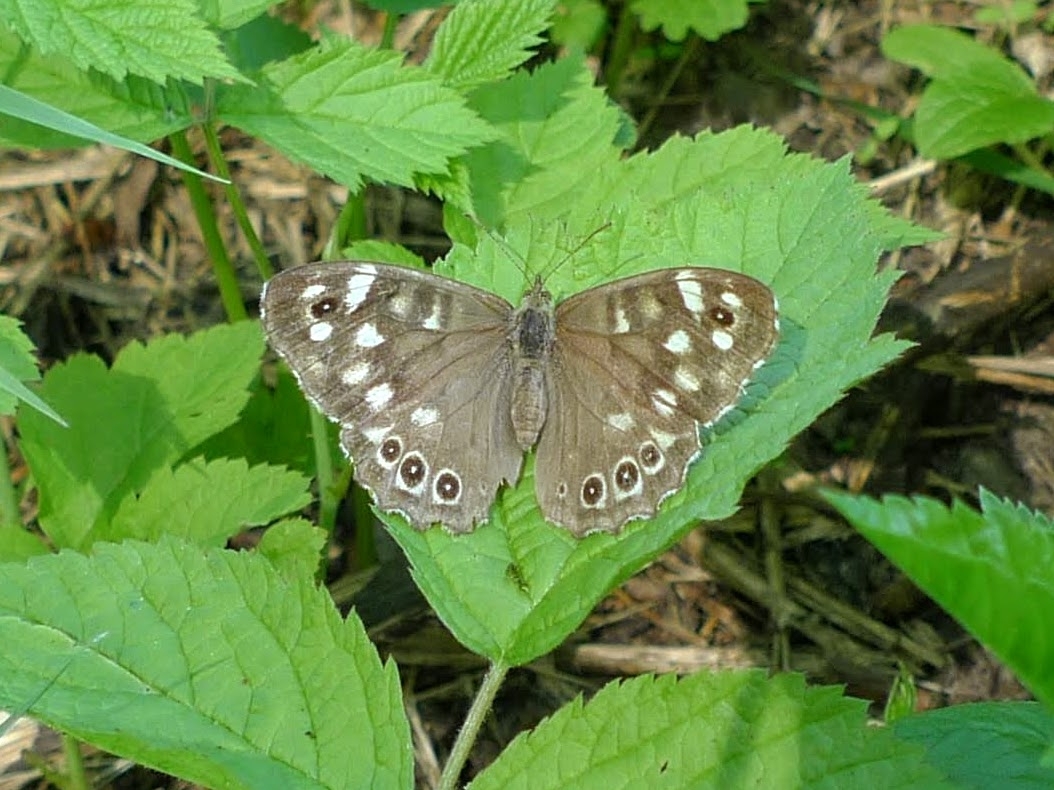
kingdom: Animalia
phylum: Arthropoda
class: Insecta
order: Lepidoptera
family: Nymphalidae
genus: Pararge
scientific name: Pararge aegeria
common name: Speckled wood
